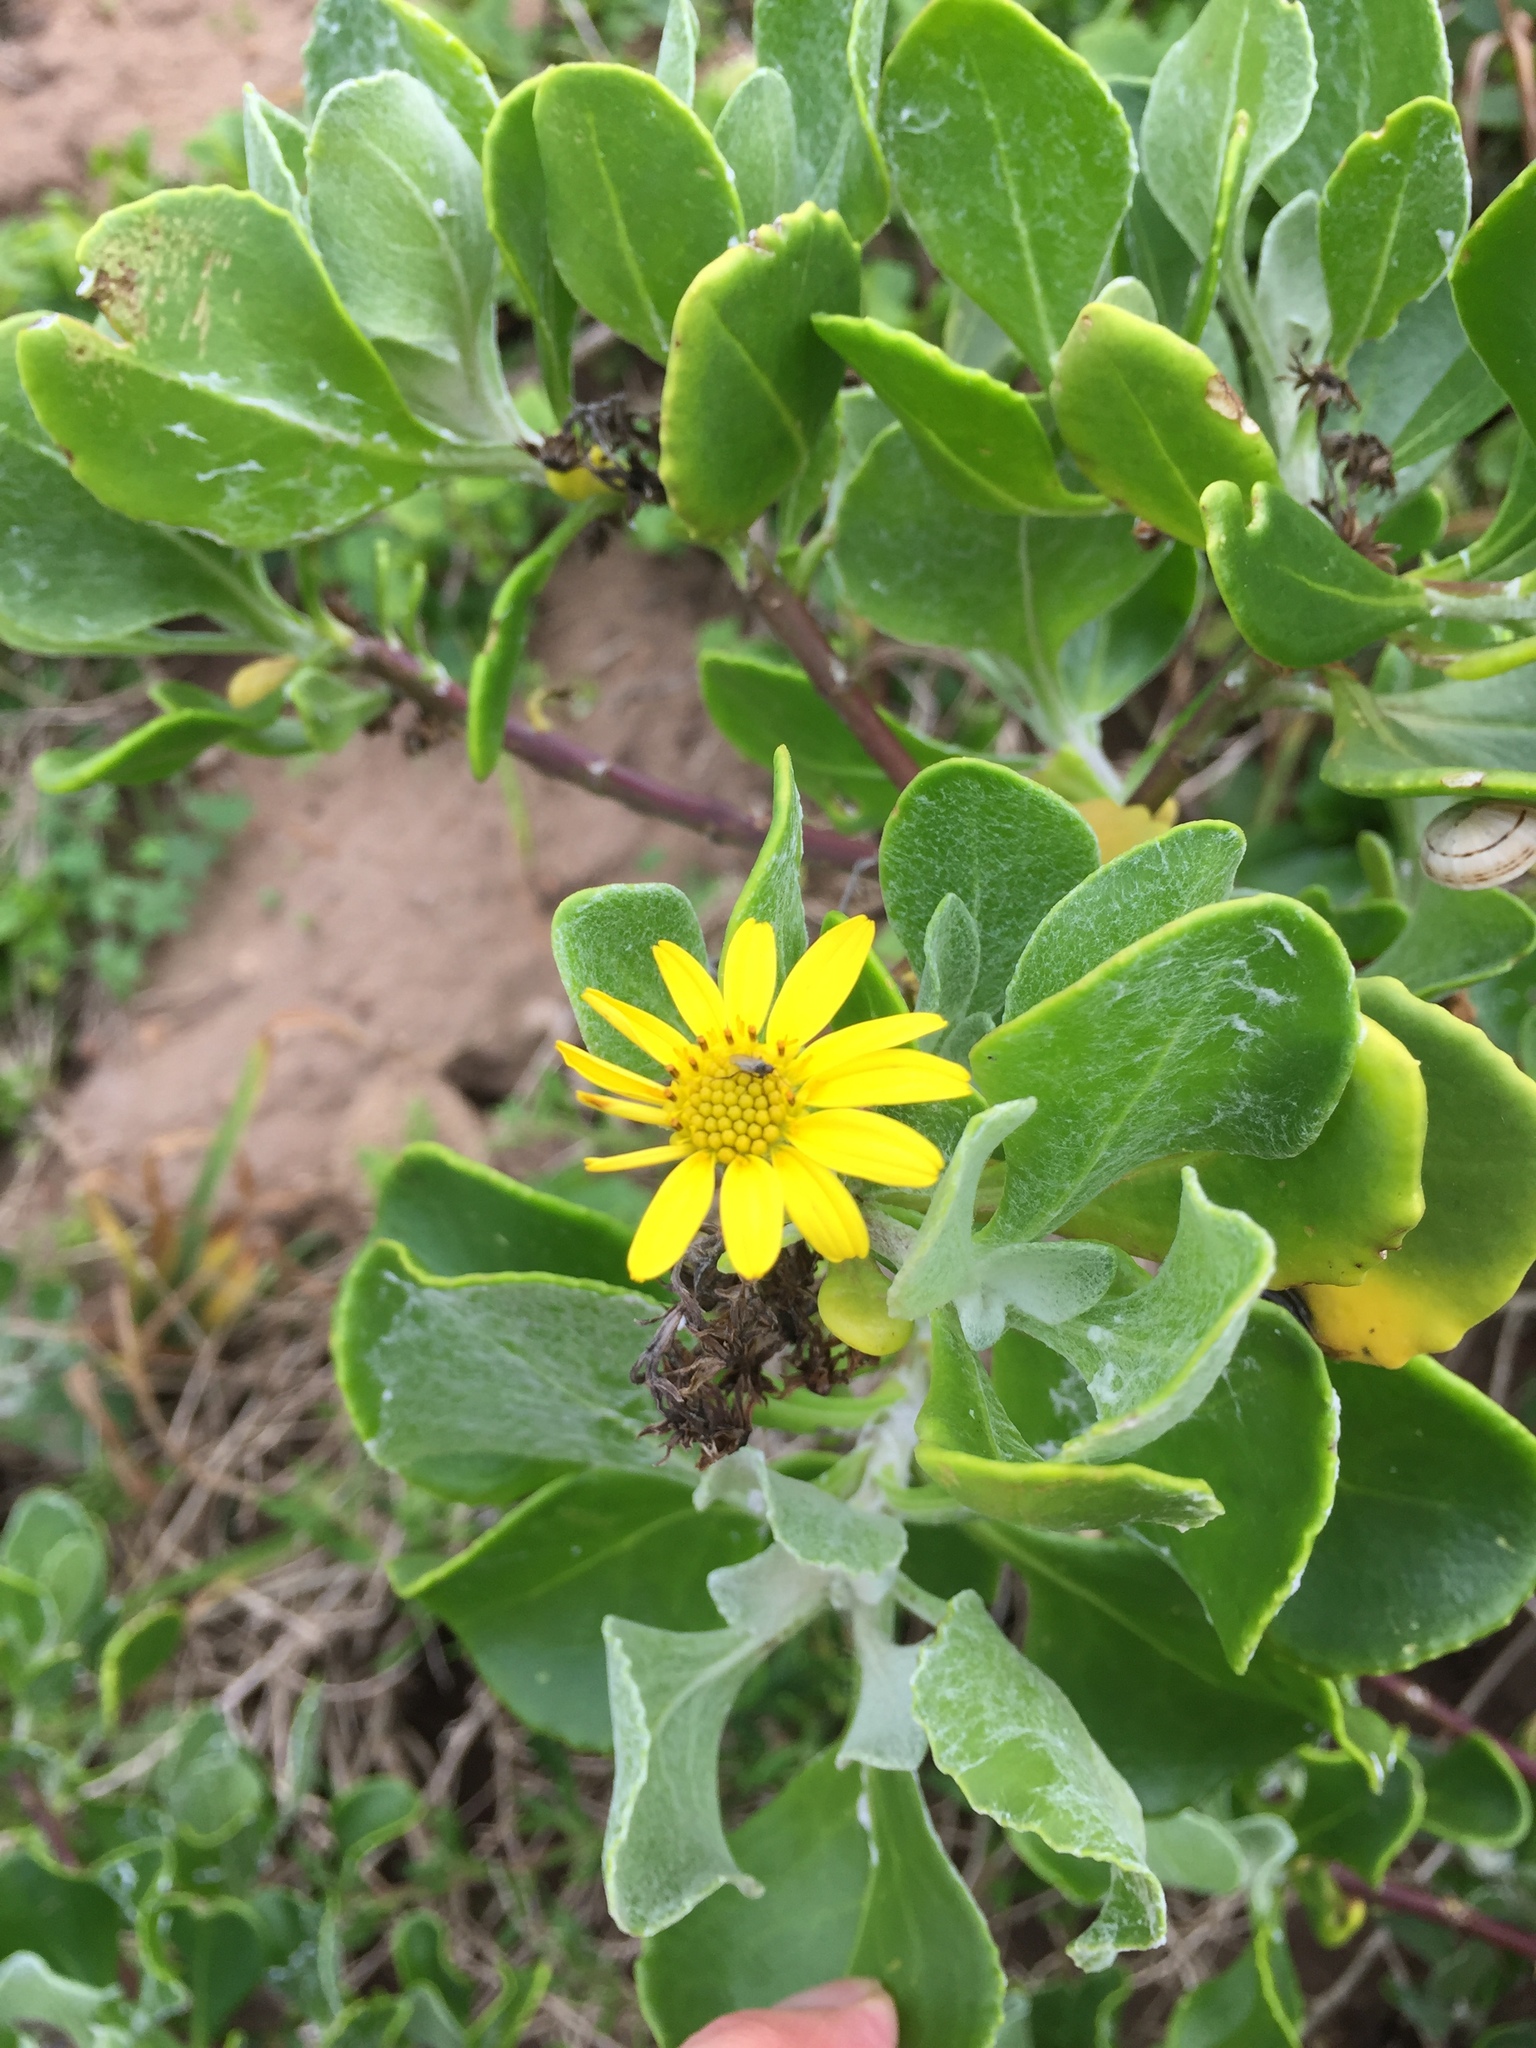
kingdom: Plantae
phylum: Tracheophyta
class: Magnoliopsida
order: Asterales
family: Asteraceae
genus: Osteospermum
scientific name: Osteospermum moniliferum
